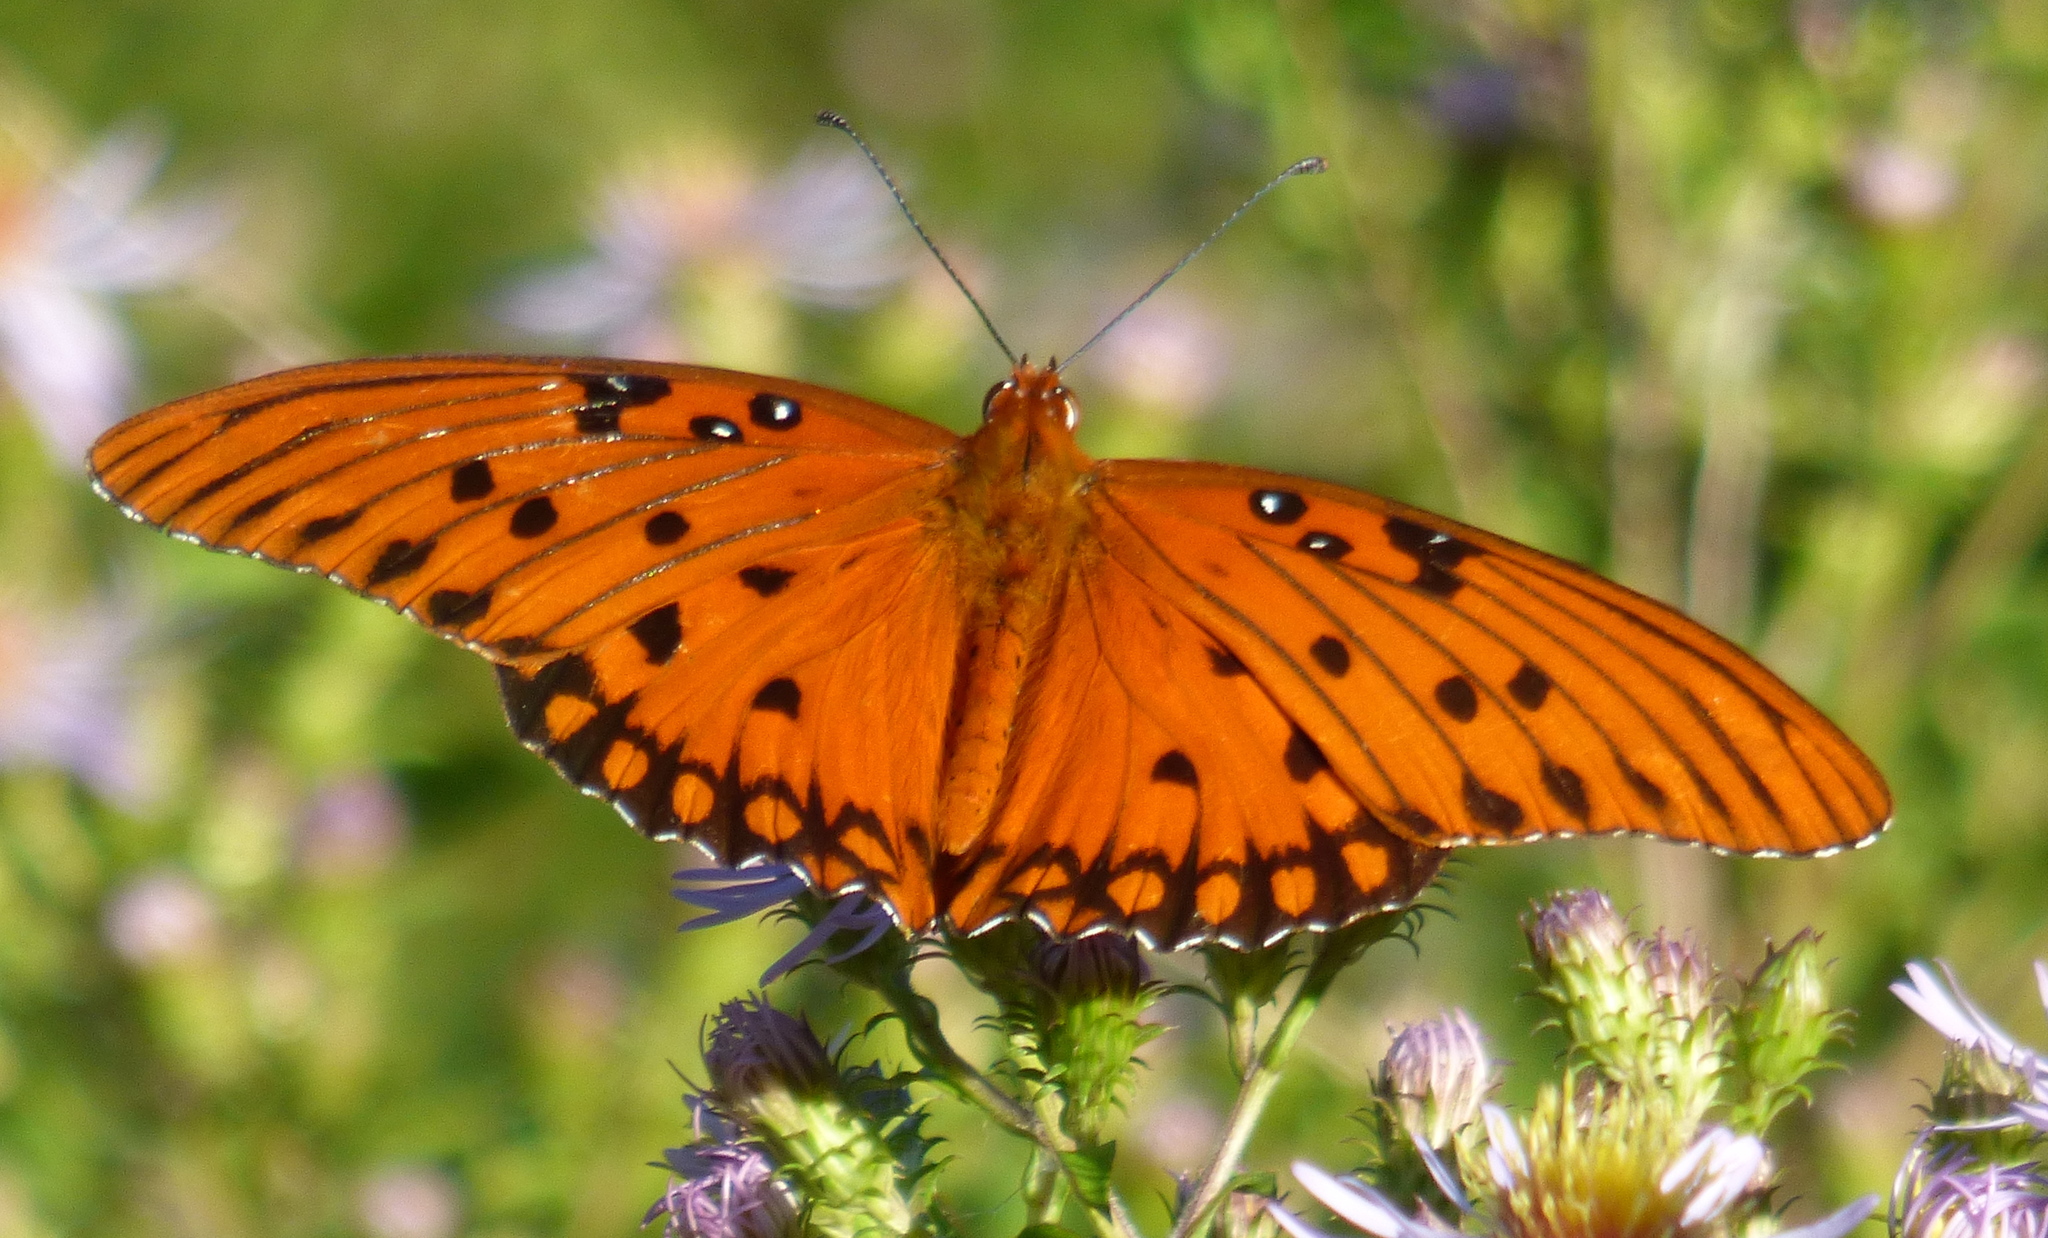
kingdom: Animalia
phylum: Arthropoda
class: Insecta
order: Lepidoptera
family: Nymphalidae
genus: Dione
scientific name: Dione vanillae
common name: Gulf fritillary
